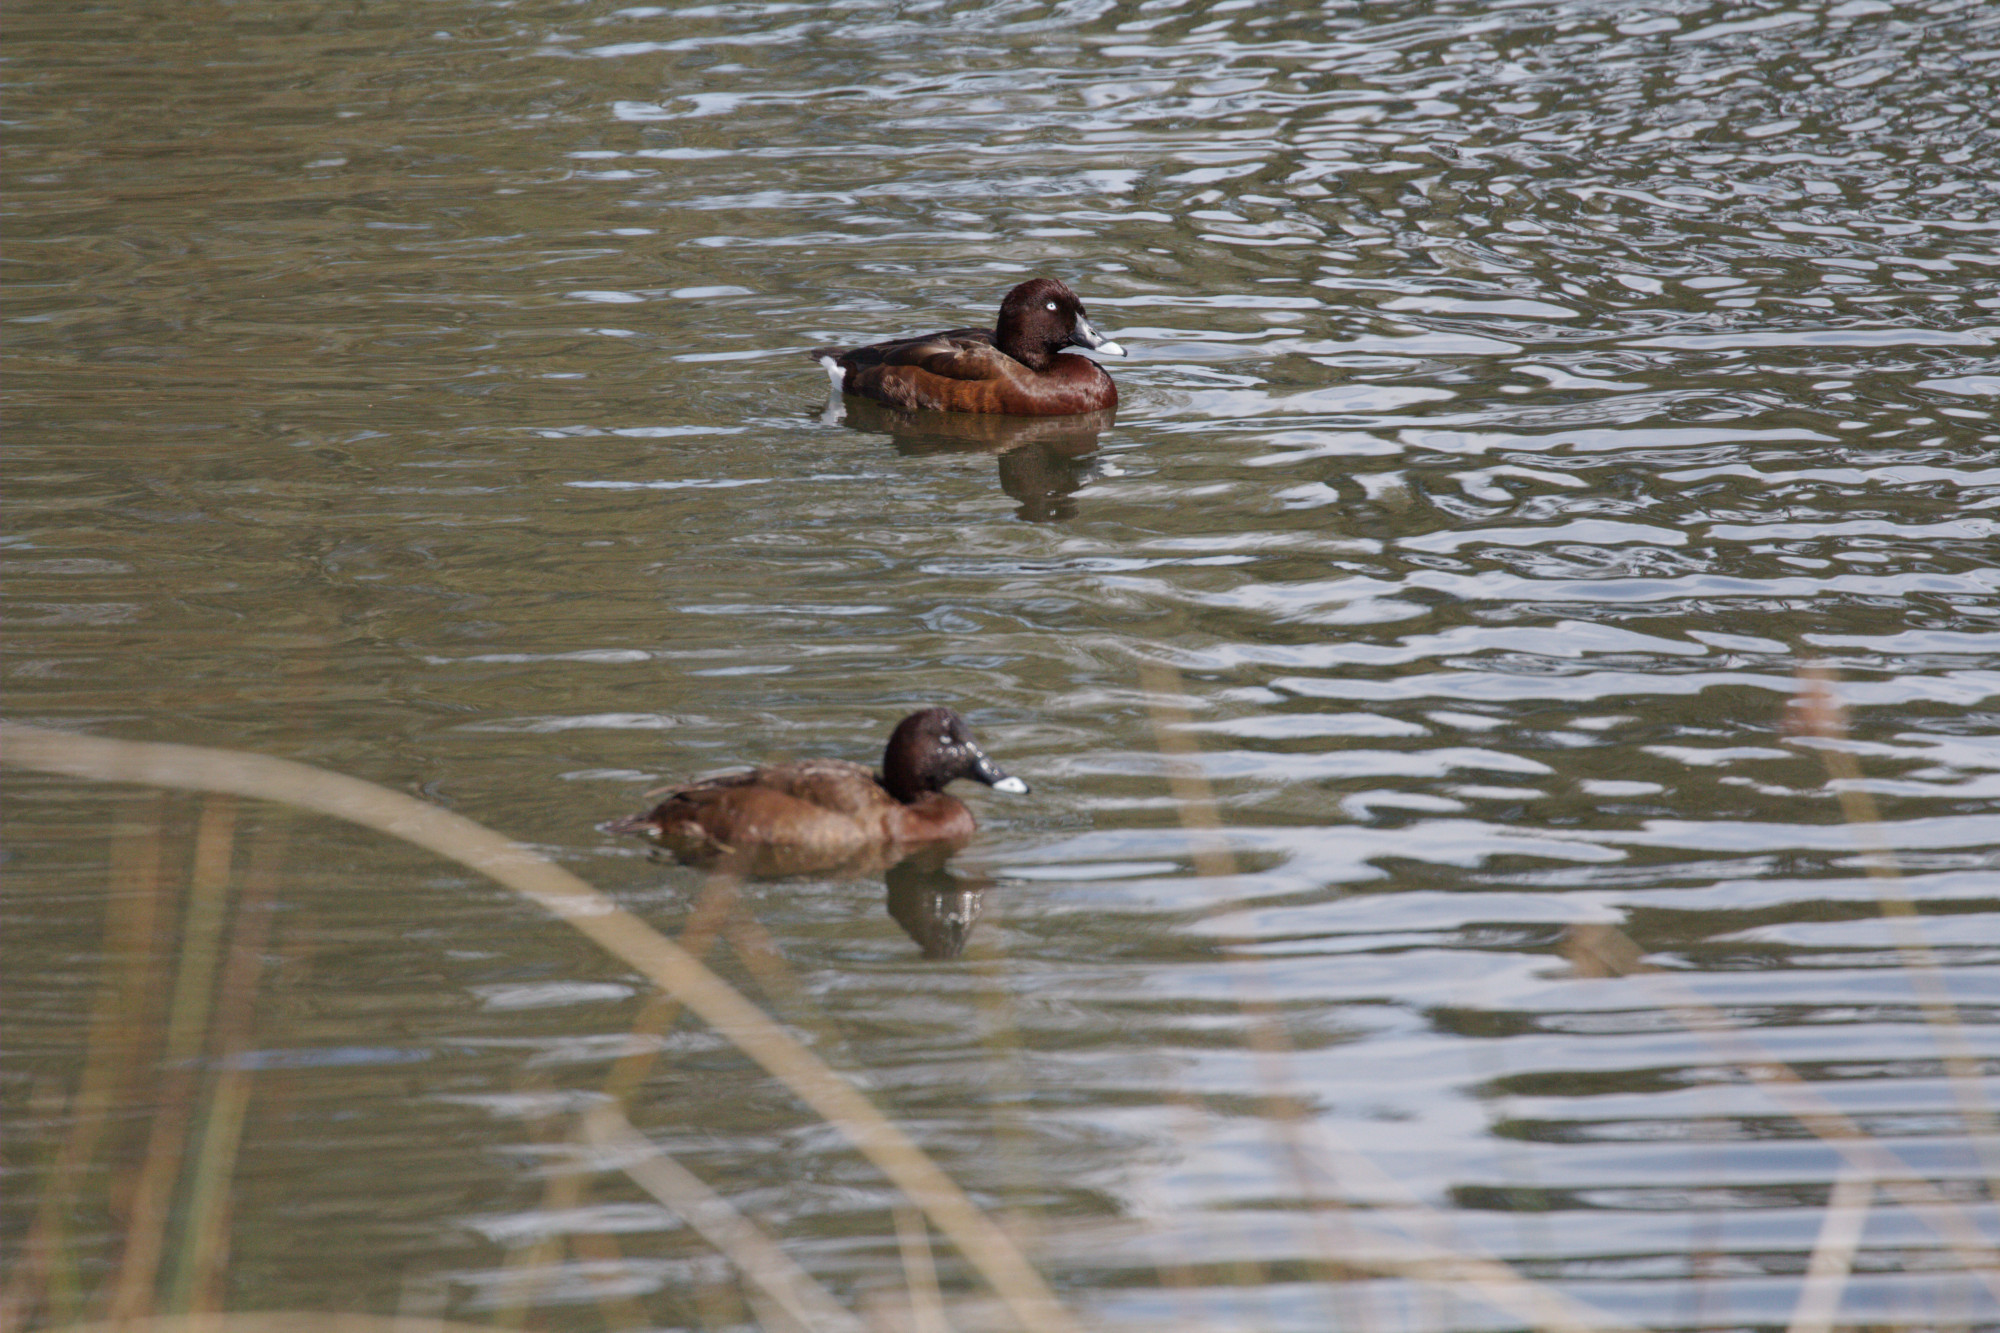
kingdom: Animalia
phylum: Chordata
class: Aves
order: Anseriformes
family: Anatidae
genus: Aythya
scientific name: Aythya australis
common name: Hardhead
